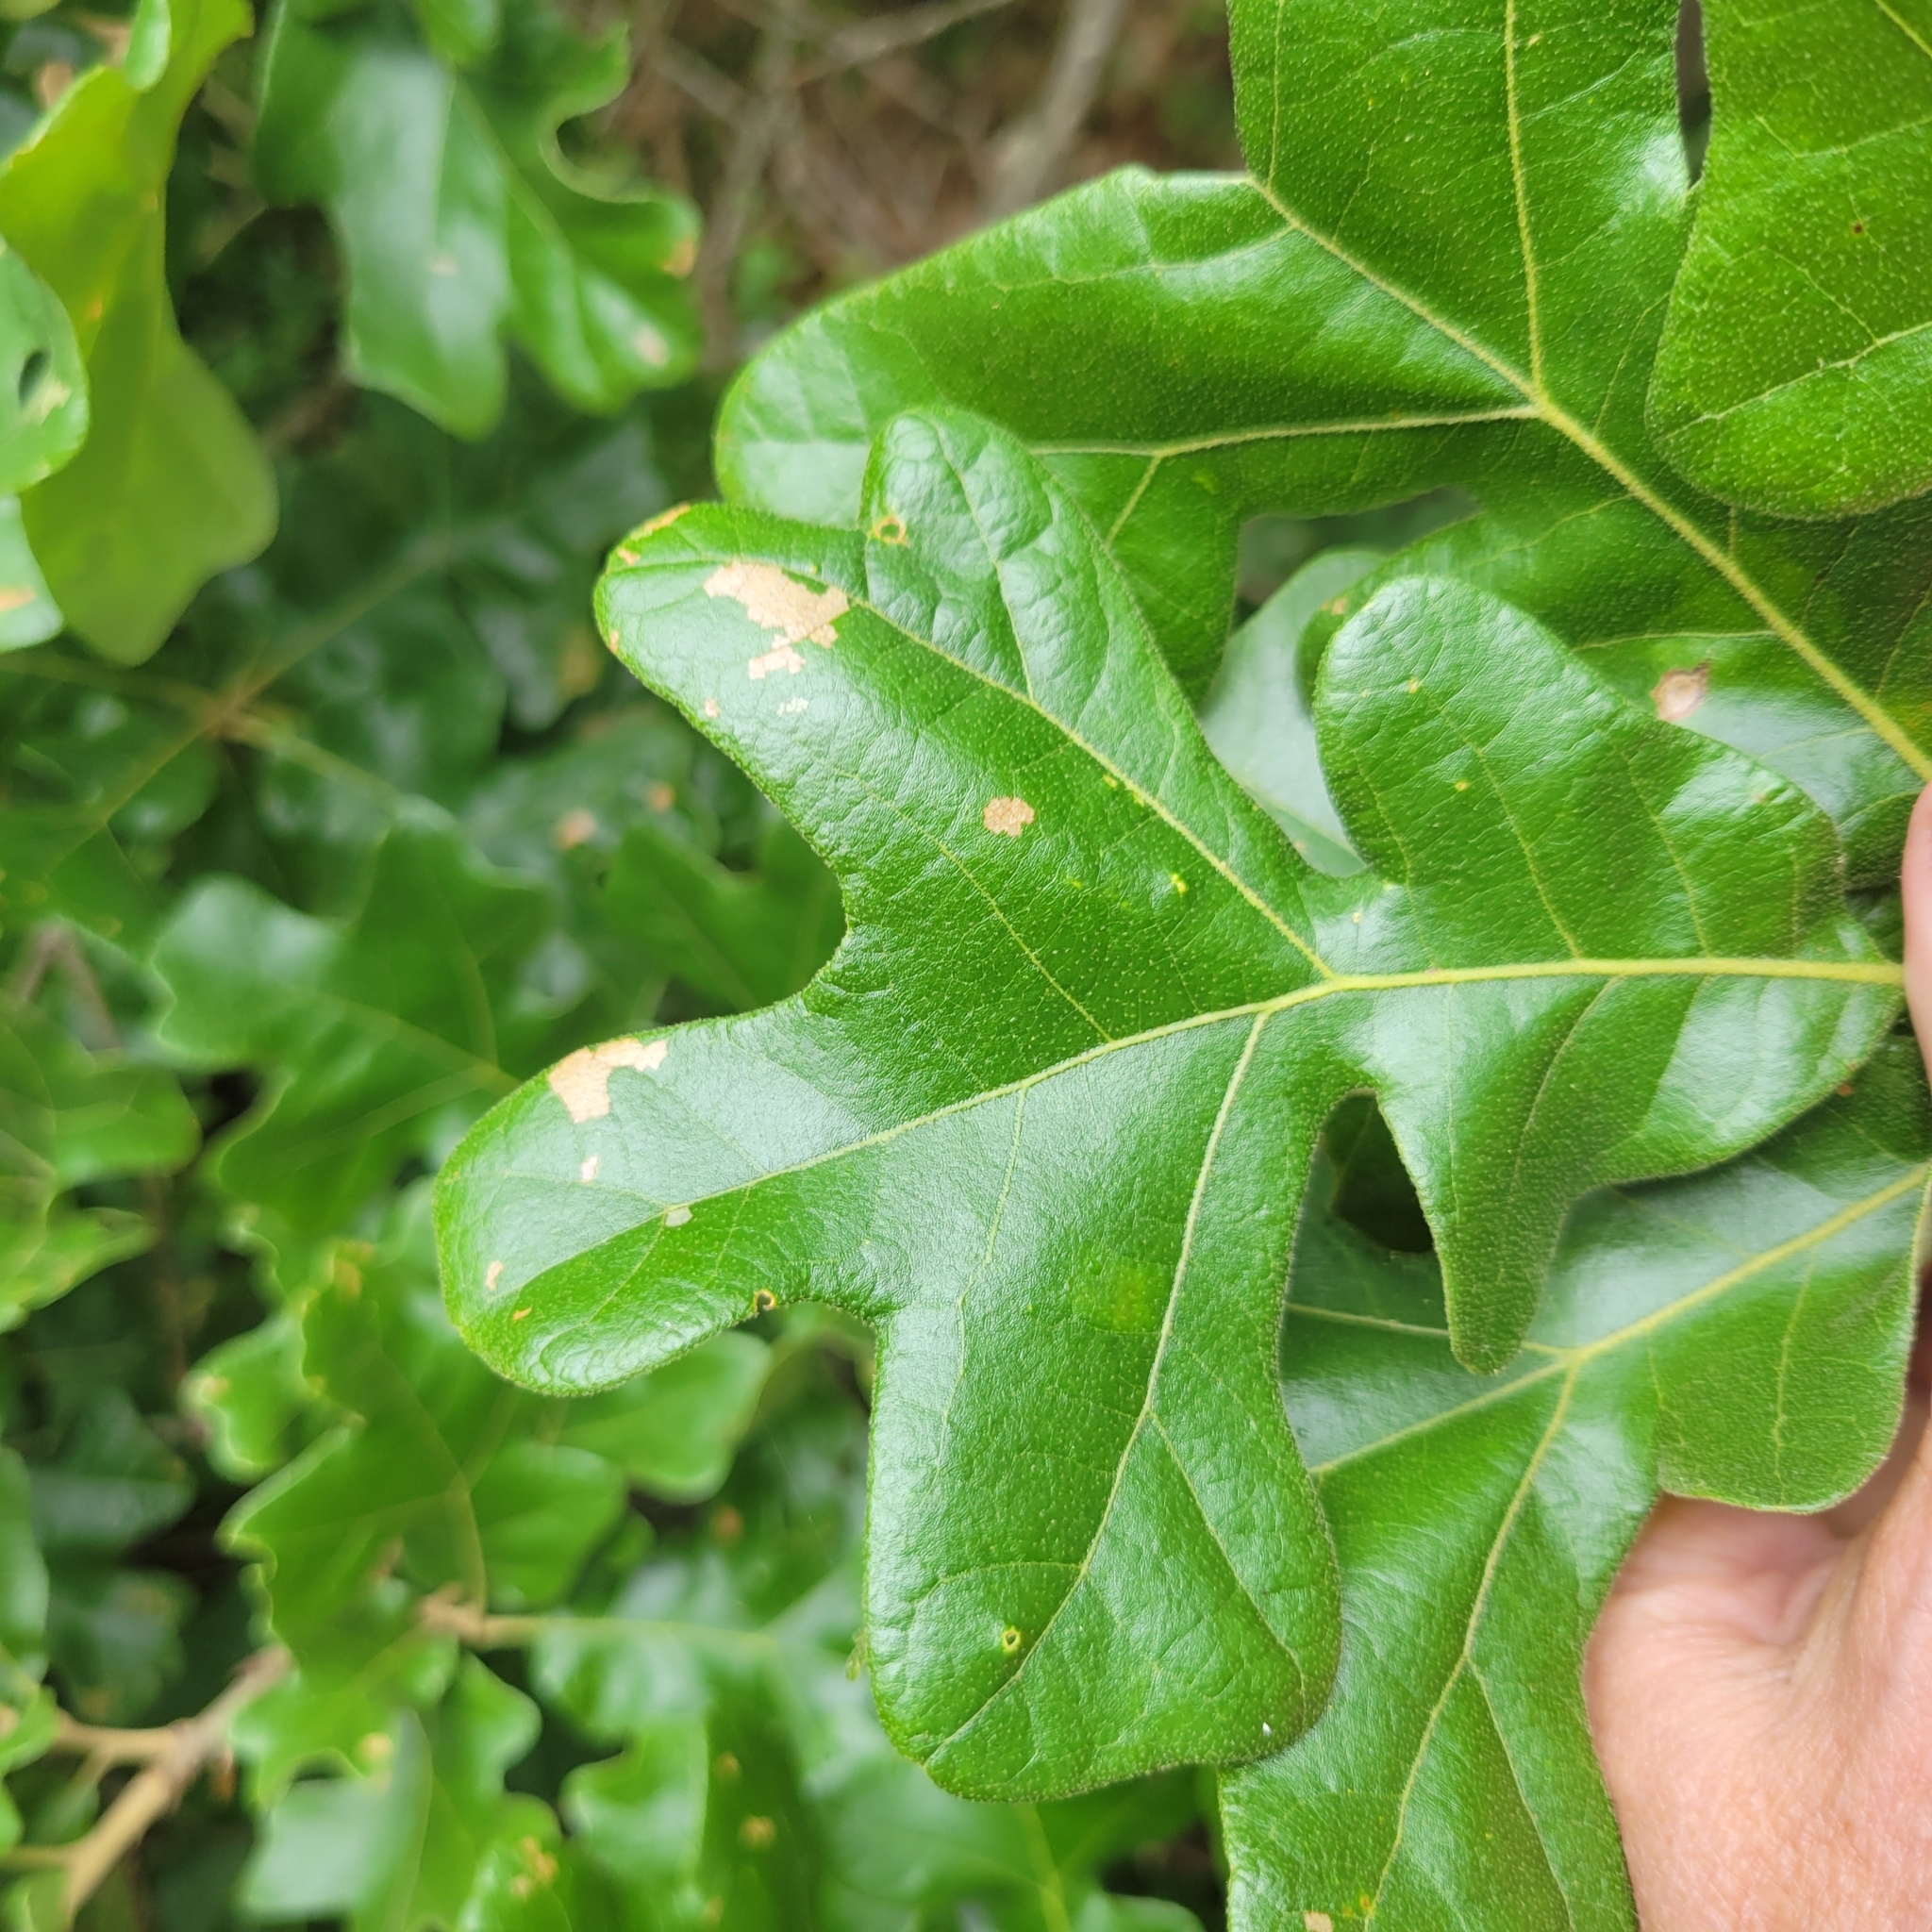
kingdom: Plantae
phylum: Tracheophyta
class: Magnoliopsida
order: Fagales
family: Fagaceae
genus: Quercus
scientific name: Quercus stellata
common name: Post oak
